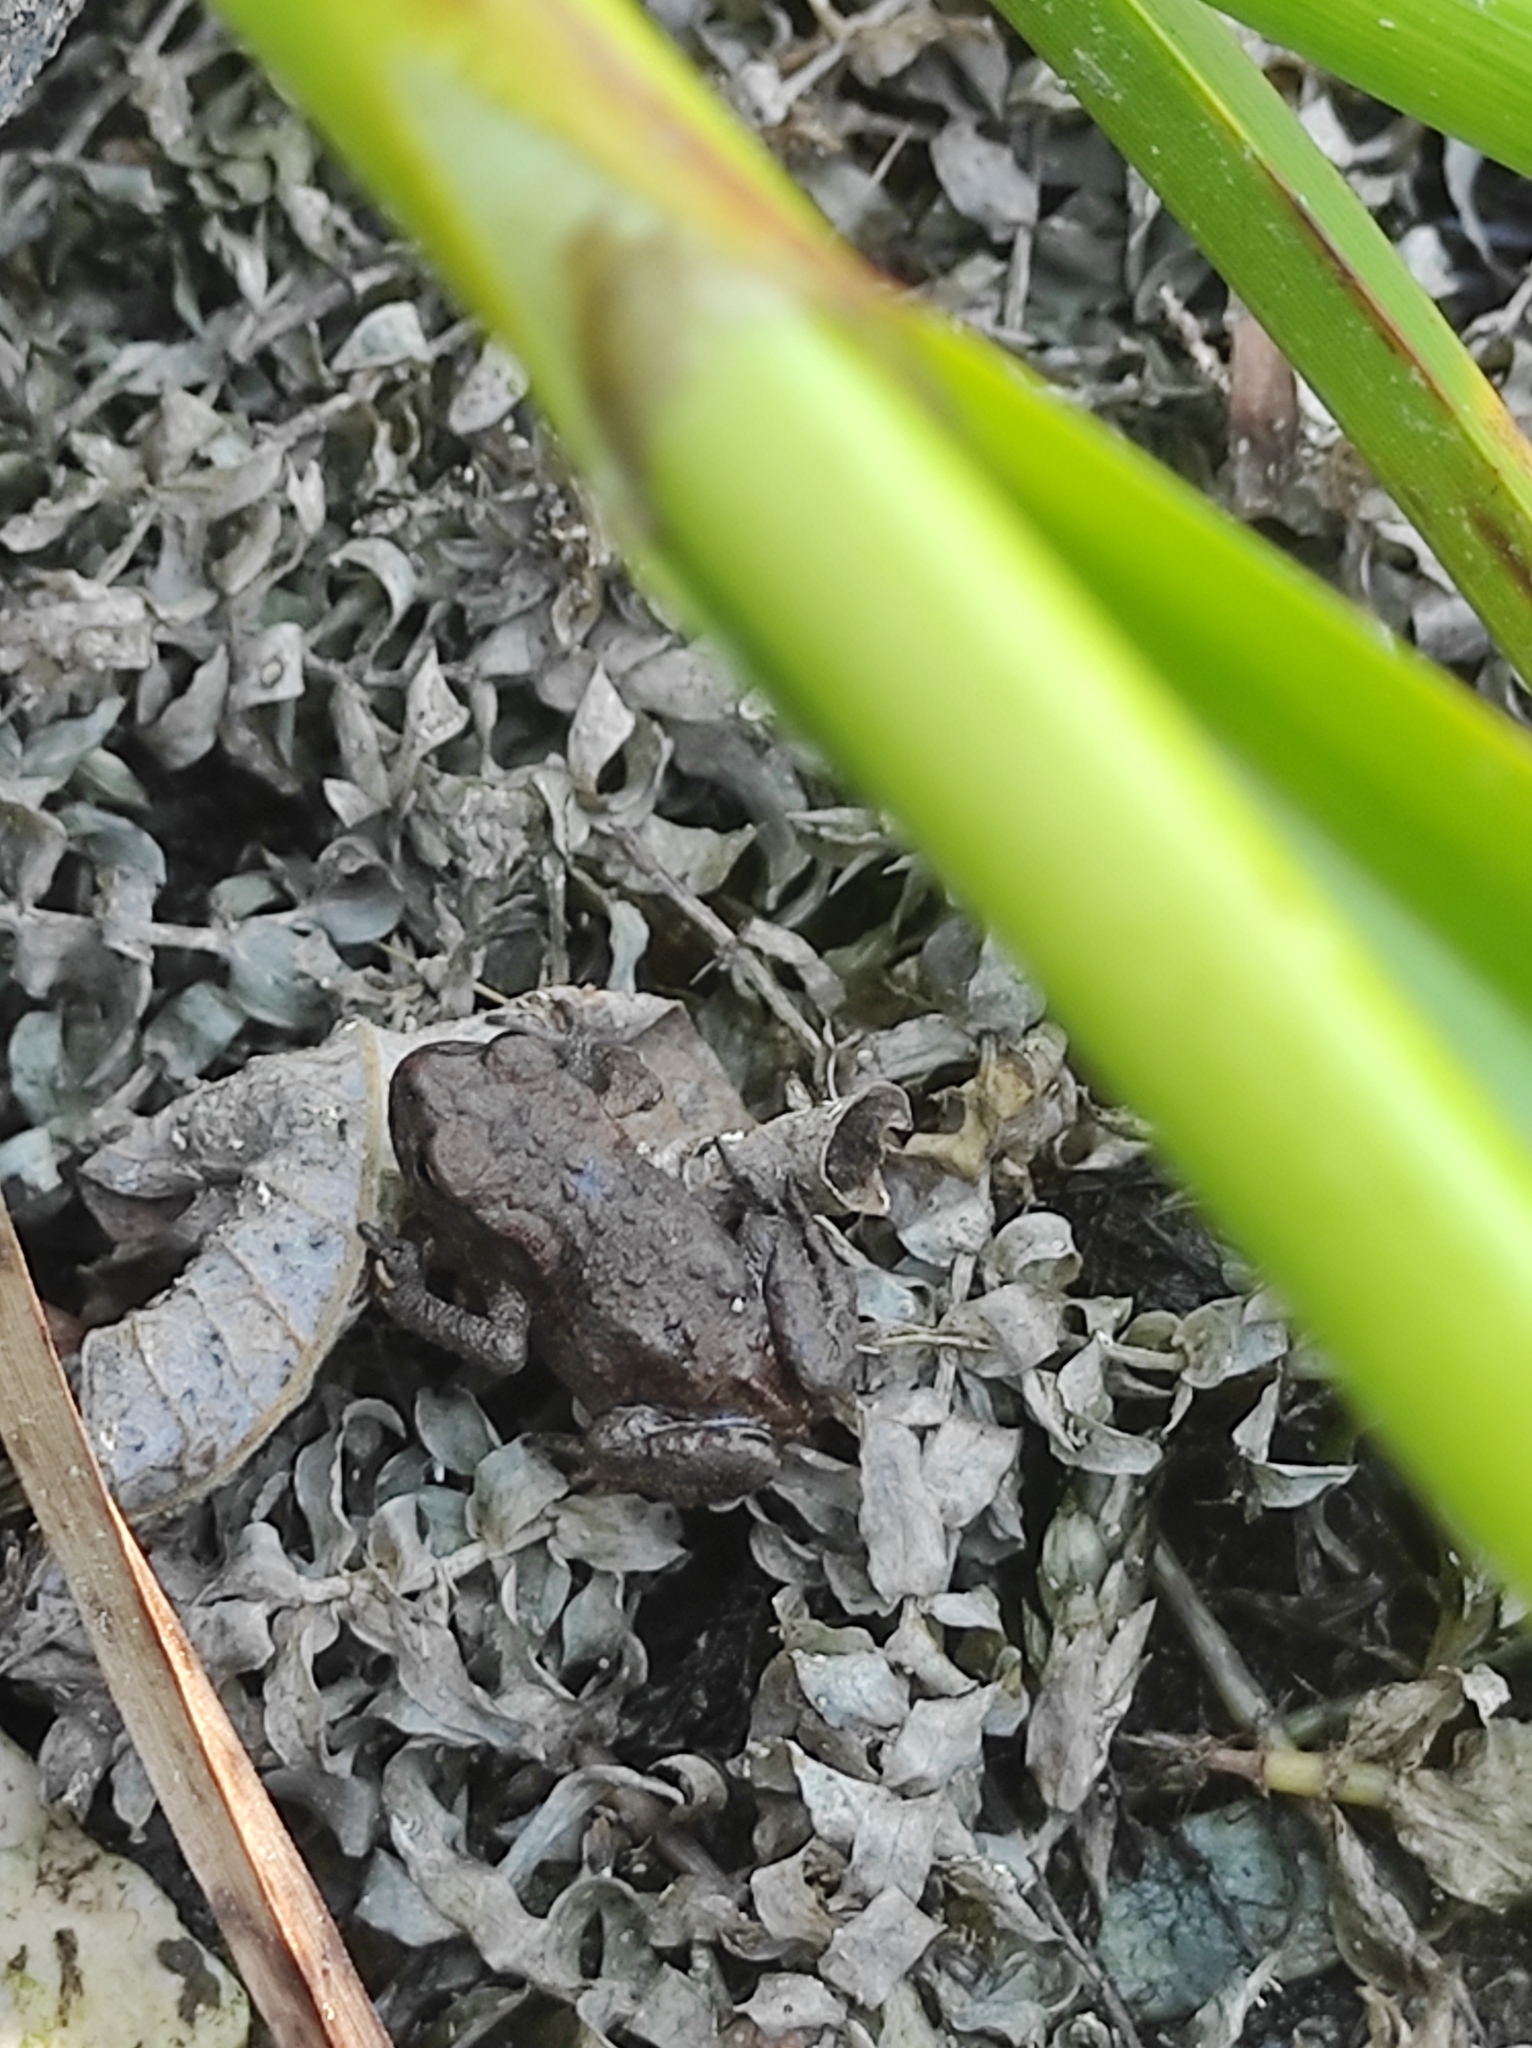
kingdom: Animalia
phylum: Chordata
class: Amphibia
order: Anura
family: Bufonidae
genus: Bufo
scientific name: Bufo bufo
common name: Common toad
